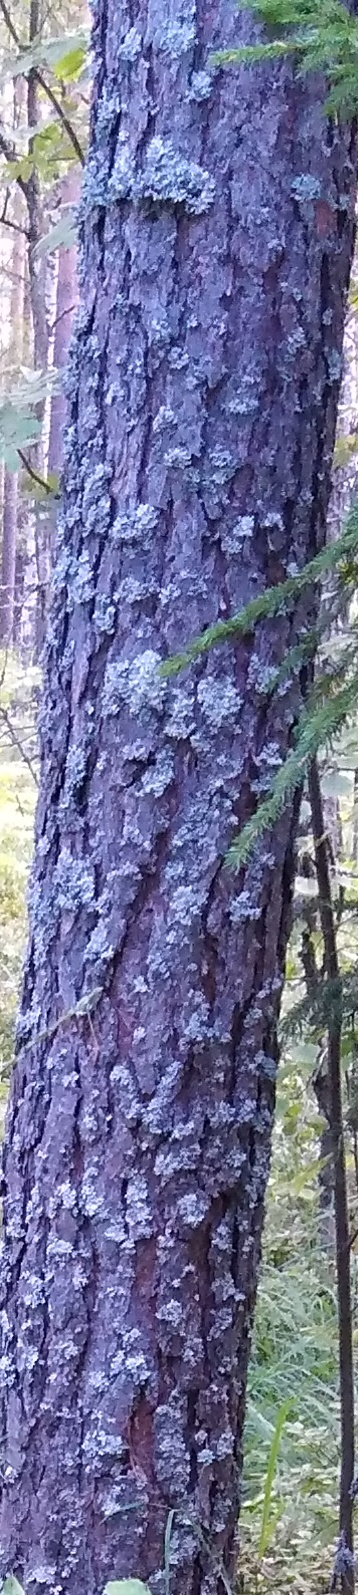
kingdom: Plantae
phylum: Tracheophyta
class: Pinopsida
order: Pinales
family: Pinaceae
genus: Pinus
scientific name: Pinus sylvestris
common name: Scots pine
